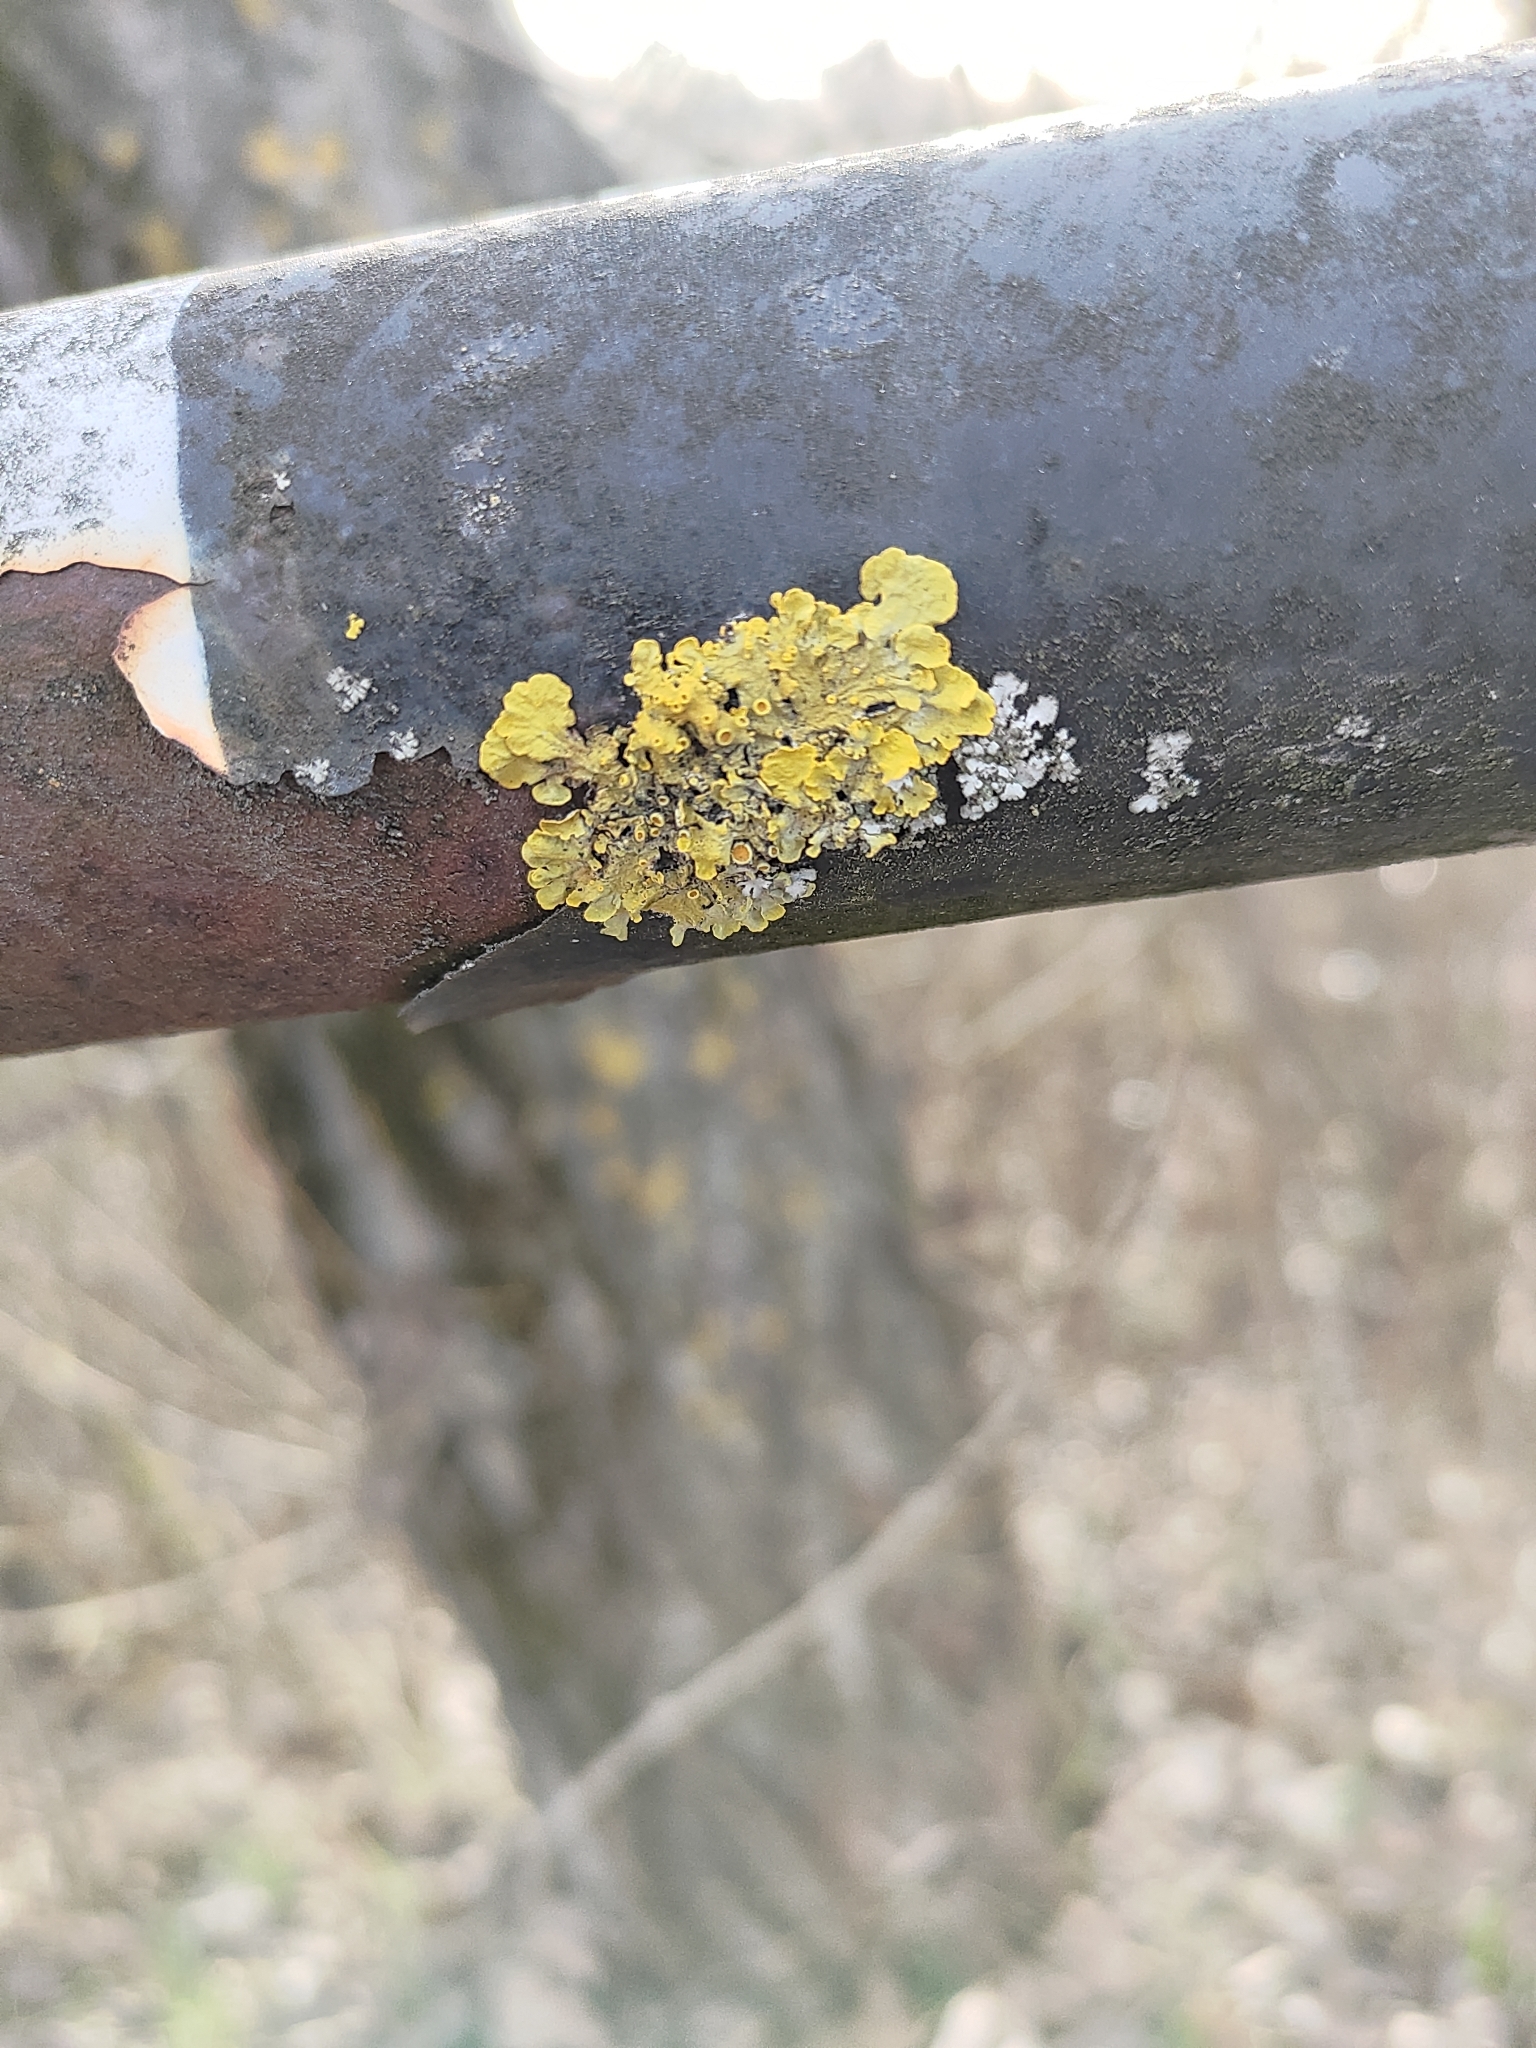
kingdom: Fungi
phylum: Ascomycota
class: Lecanoromycetes
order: Teloschistales
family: Teloschistaceae
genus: Xanthoria
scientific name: Xanthoria parietina
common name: Common orange lichen
